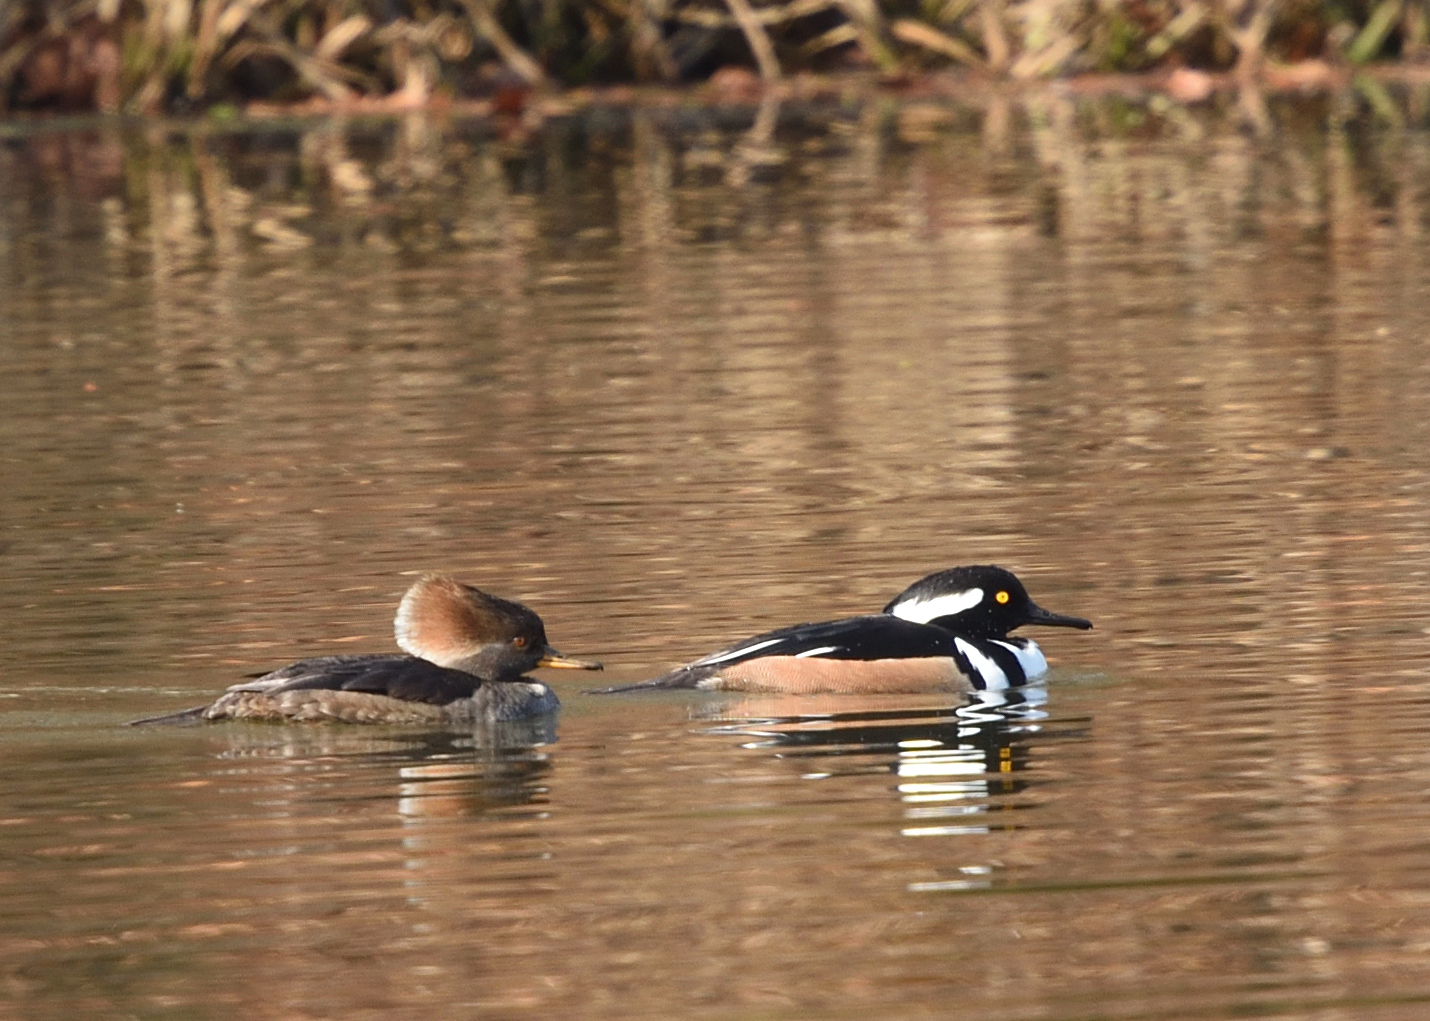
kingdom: Animalia
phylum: Chordata
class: Aves
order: Anseriformes
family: Anatidae
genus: Lophodytes
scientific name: Lophodytes cucullatus
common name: Hooded merganser
